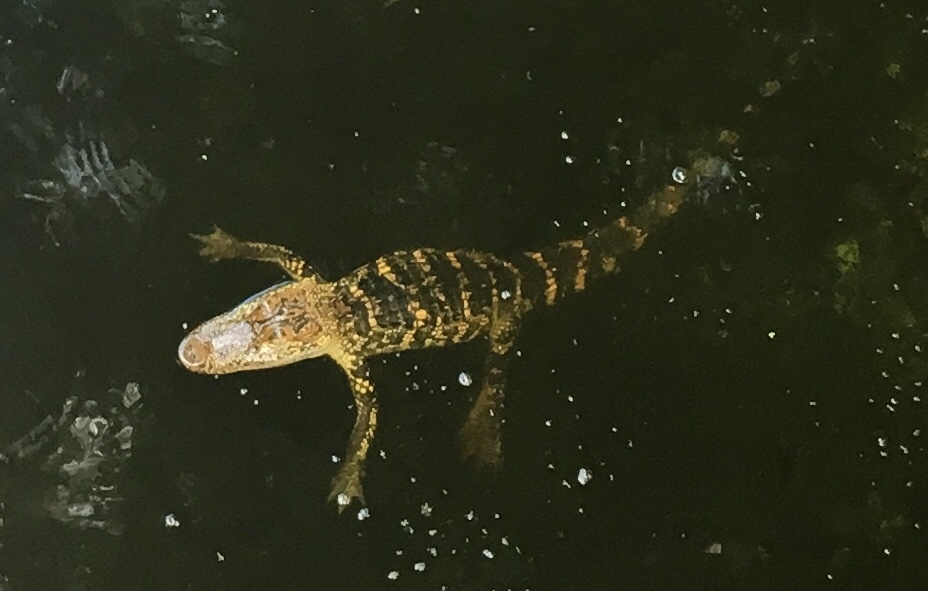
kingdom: Animalia
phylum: Chordata
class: Crocodylia
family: Alligatoridae
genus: Alligator
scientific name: Alligator mississippiensis
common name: American alligator
